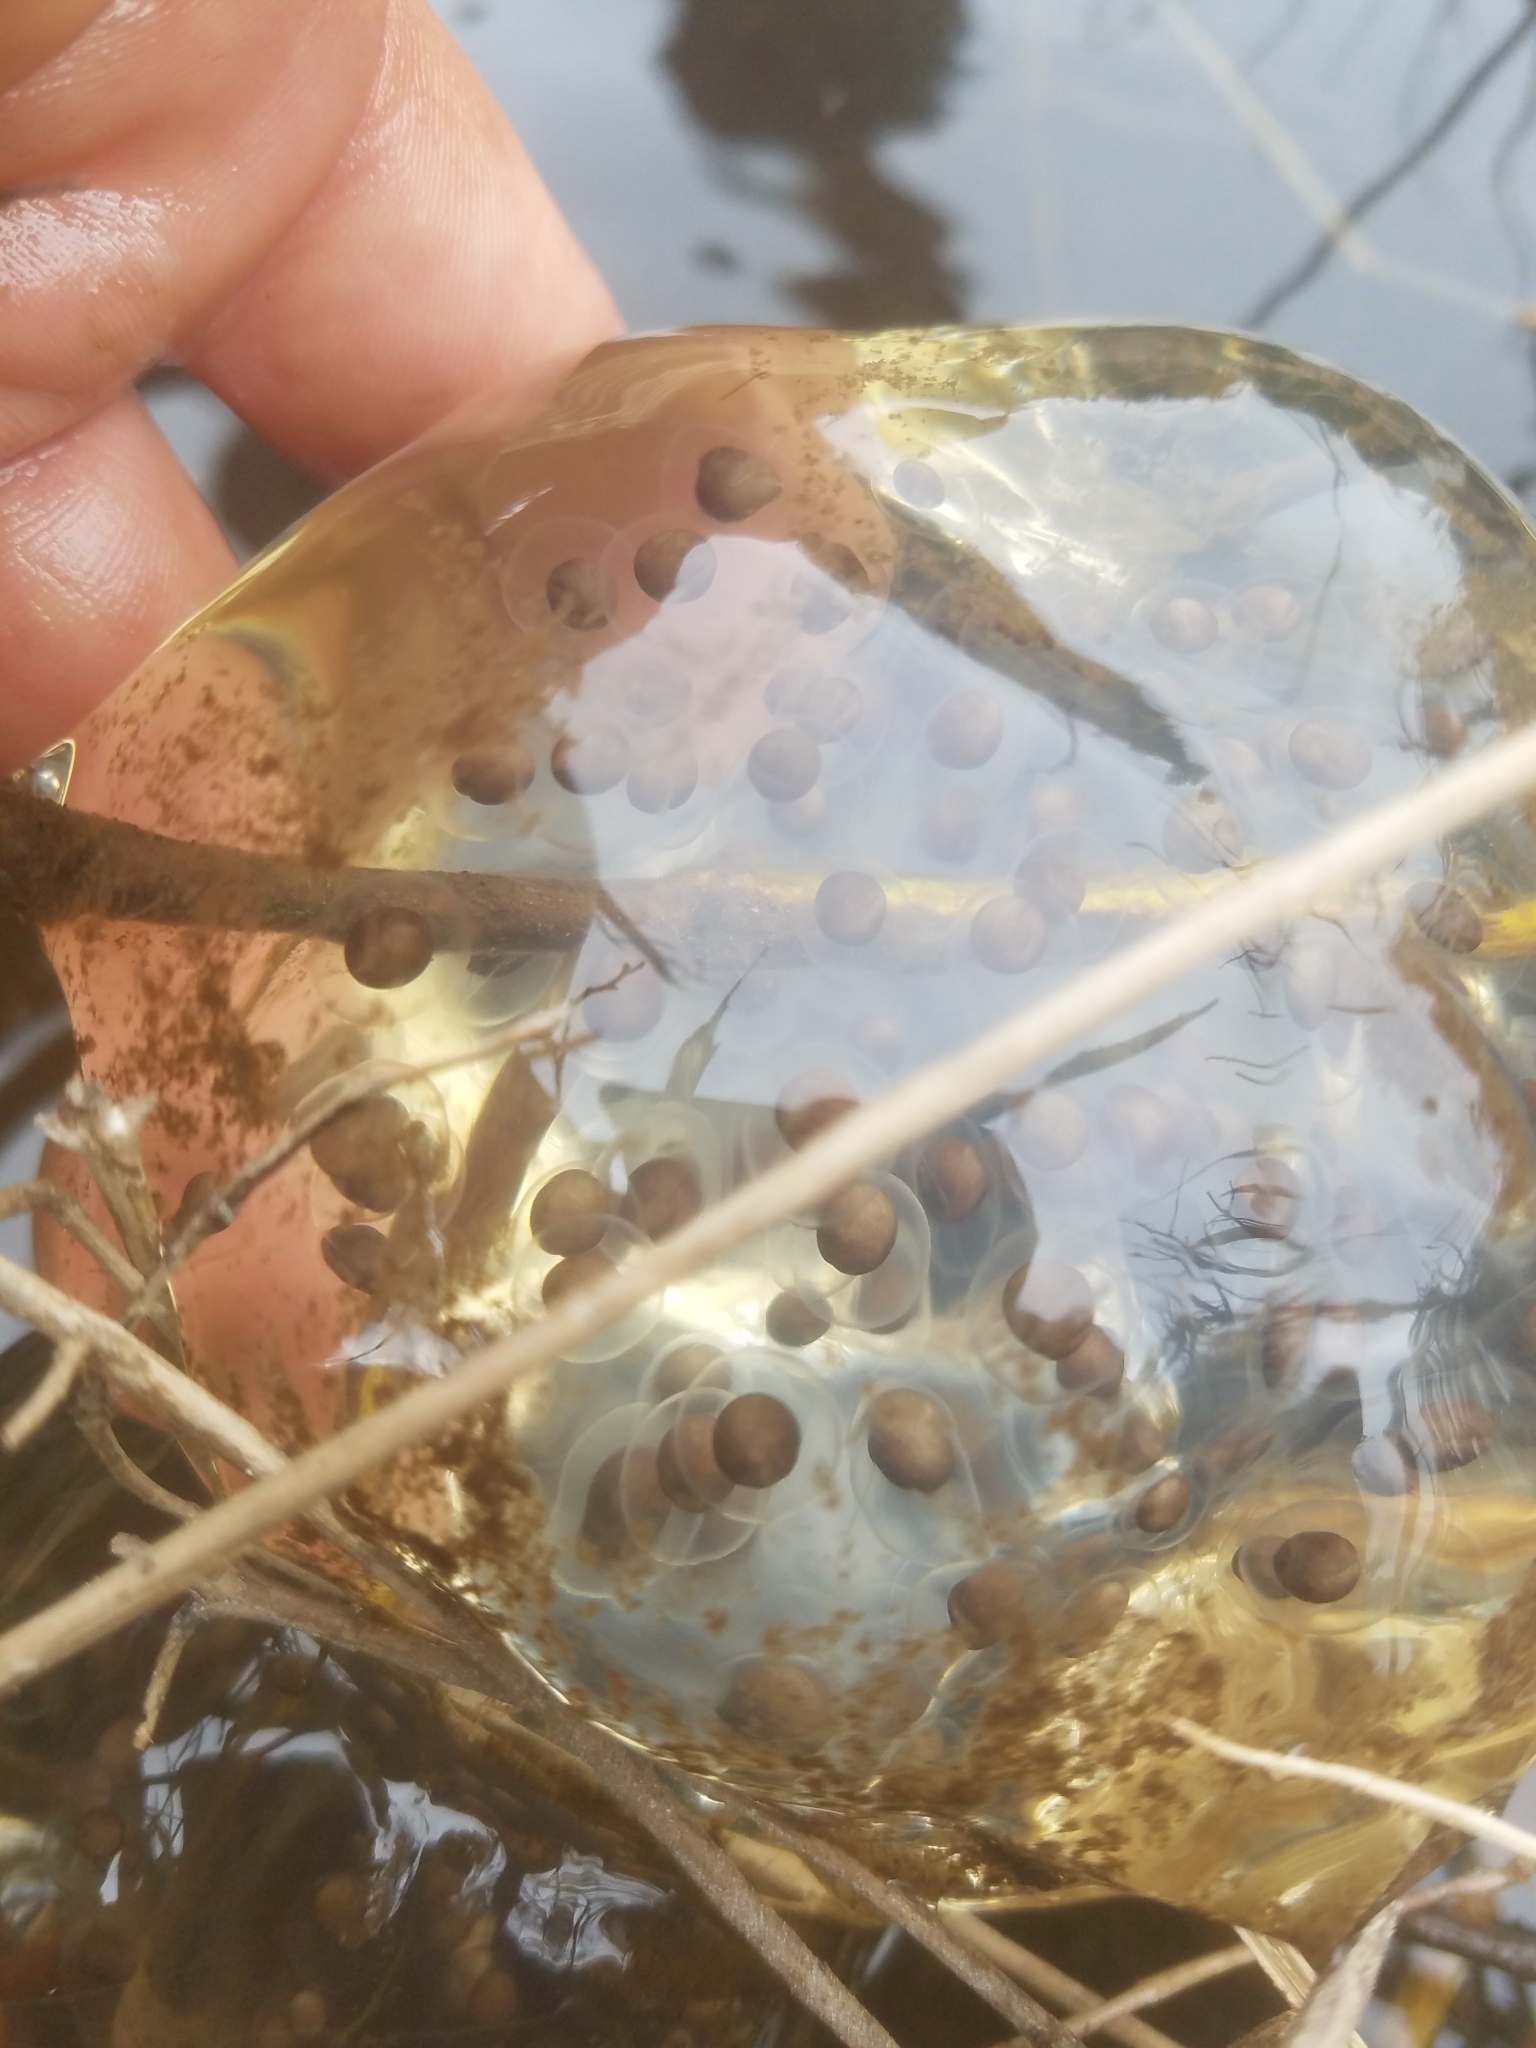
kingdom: Animalia
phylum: Chordata
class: Amphibia
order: Caudata
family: Ambystomatidae
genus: Ambystoma
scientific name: Ambystoma gracile
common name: Northwestern salamander
